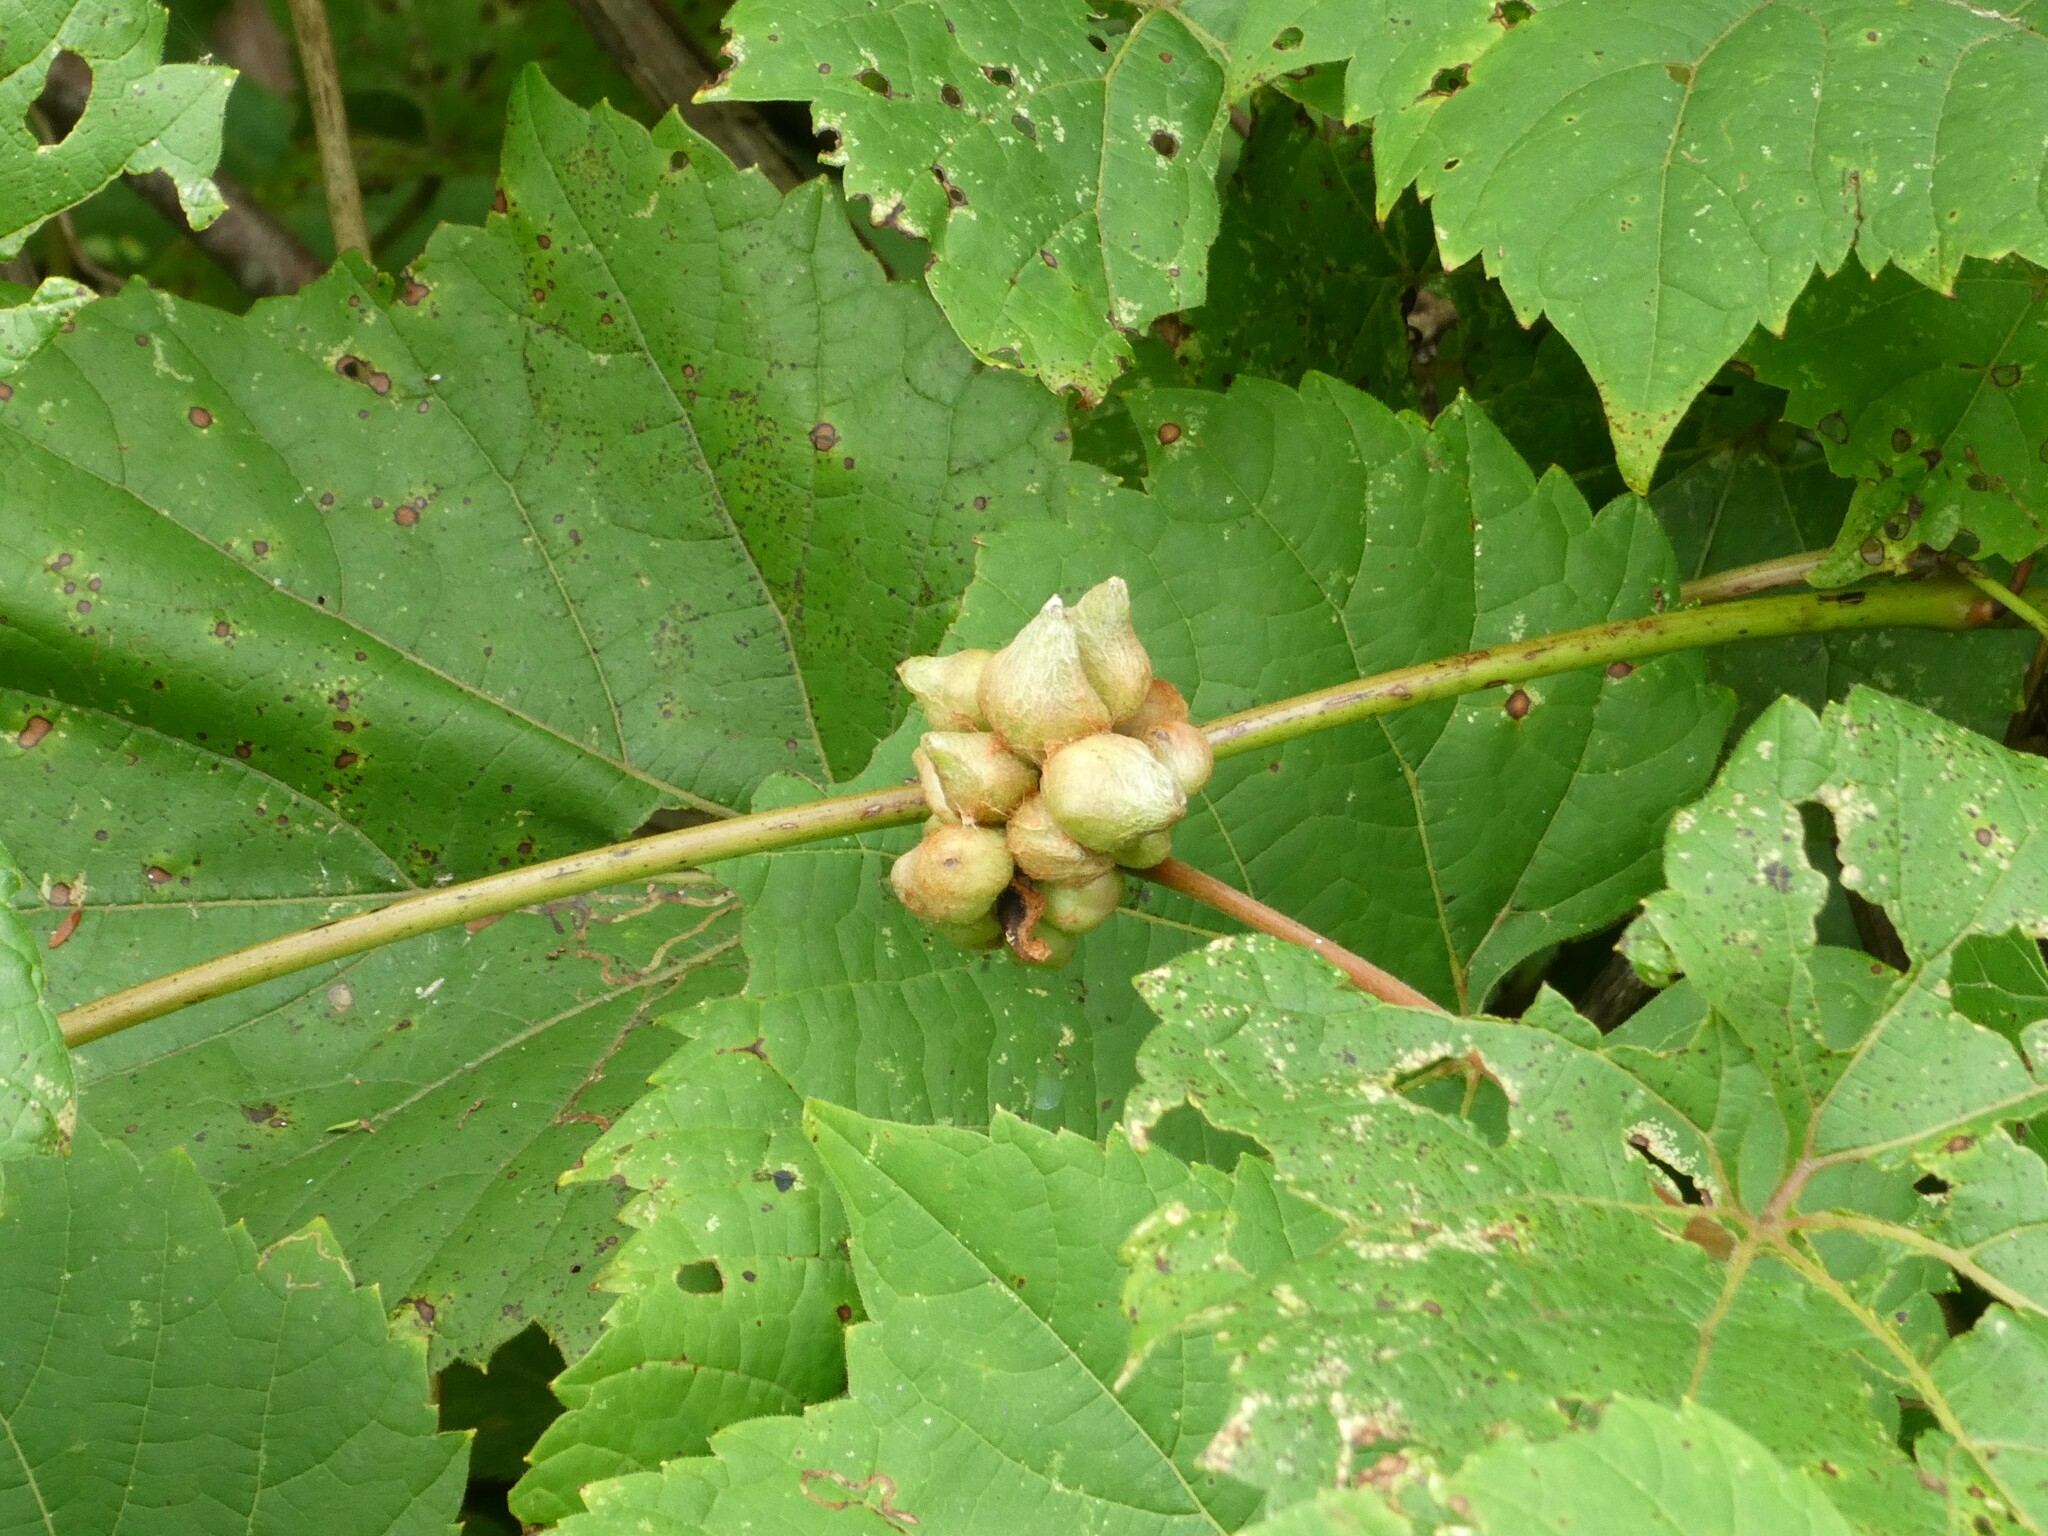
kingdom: Animalia
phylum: Arthropoda
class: Insecta
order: Diptera
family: Cecidomyiidae
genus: Ampelomyia
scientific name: Ampelomyia vitiscoryloides
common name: Grape filbert gall
